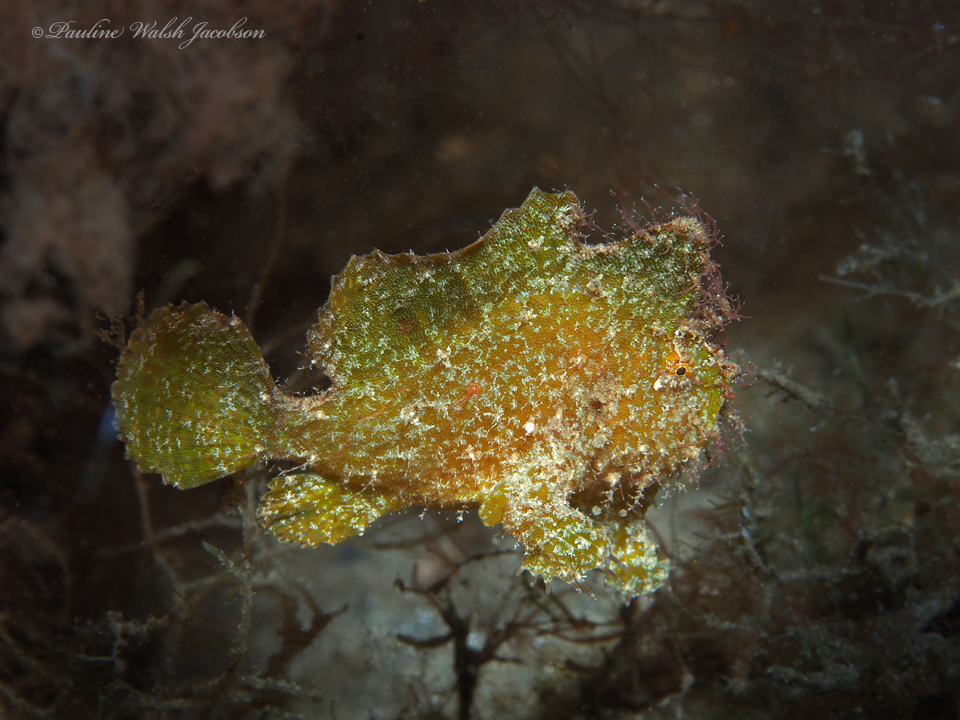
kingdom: Animalia
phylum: Chordata
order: Lophiiformes
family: Antennariidae
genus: Antennarius
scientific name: Antennarius pauciradiatus
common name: Dwarf frogfish
